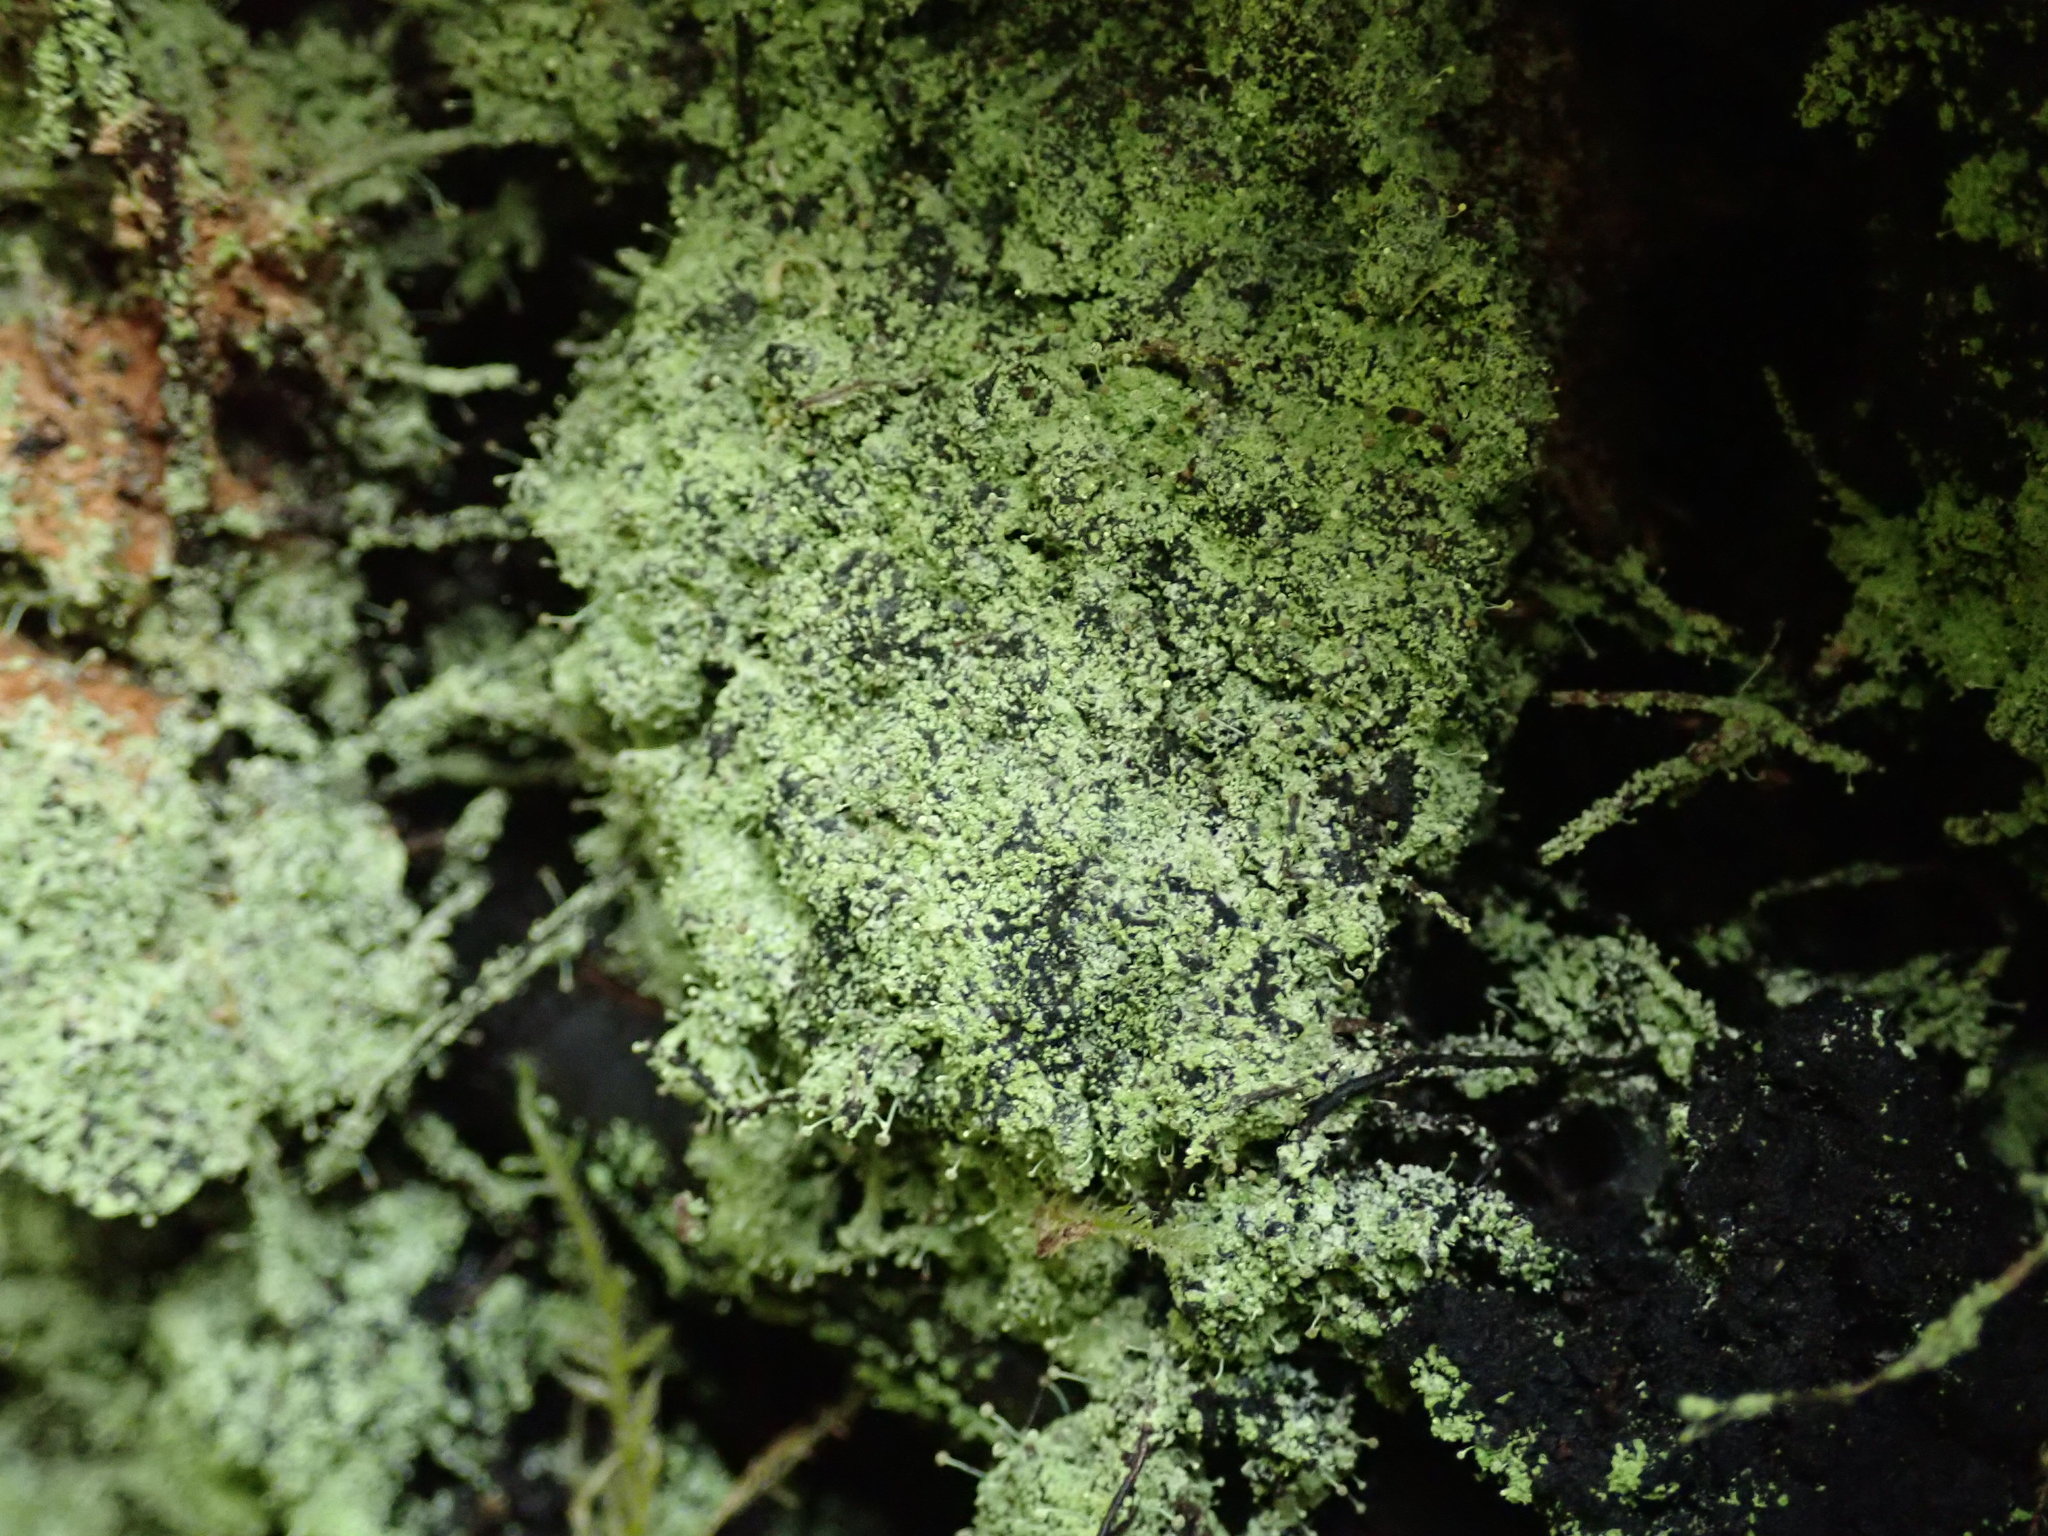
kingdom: Fungi
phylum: Ascomycota
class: Coniocybomycetes
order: Coniocybales
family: Coniocybaceae
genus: Chaenotheca
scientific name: Chaenotheca furfuracea
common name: Sulphur stubble lichen
